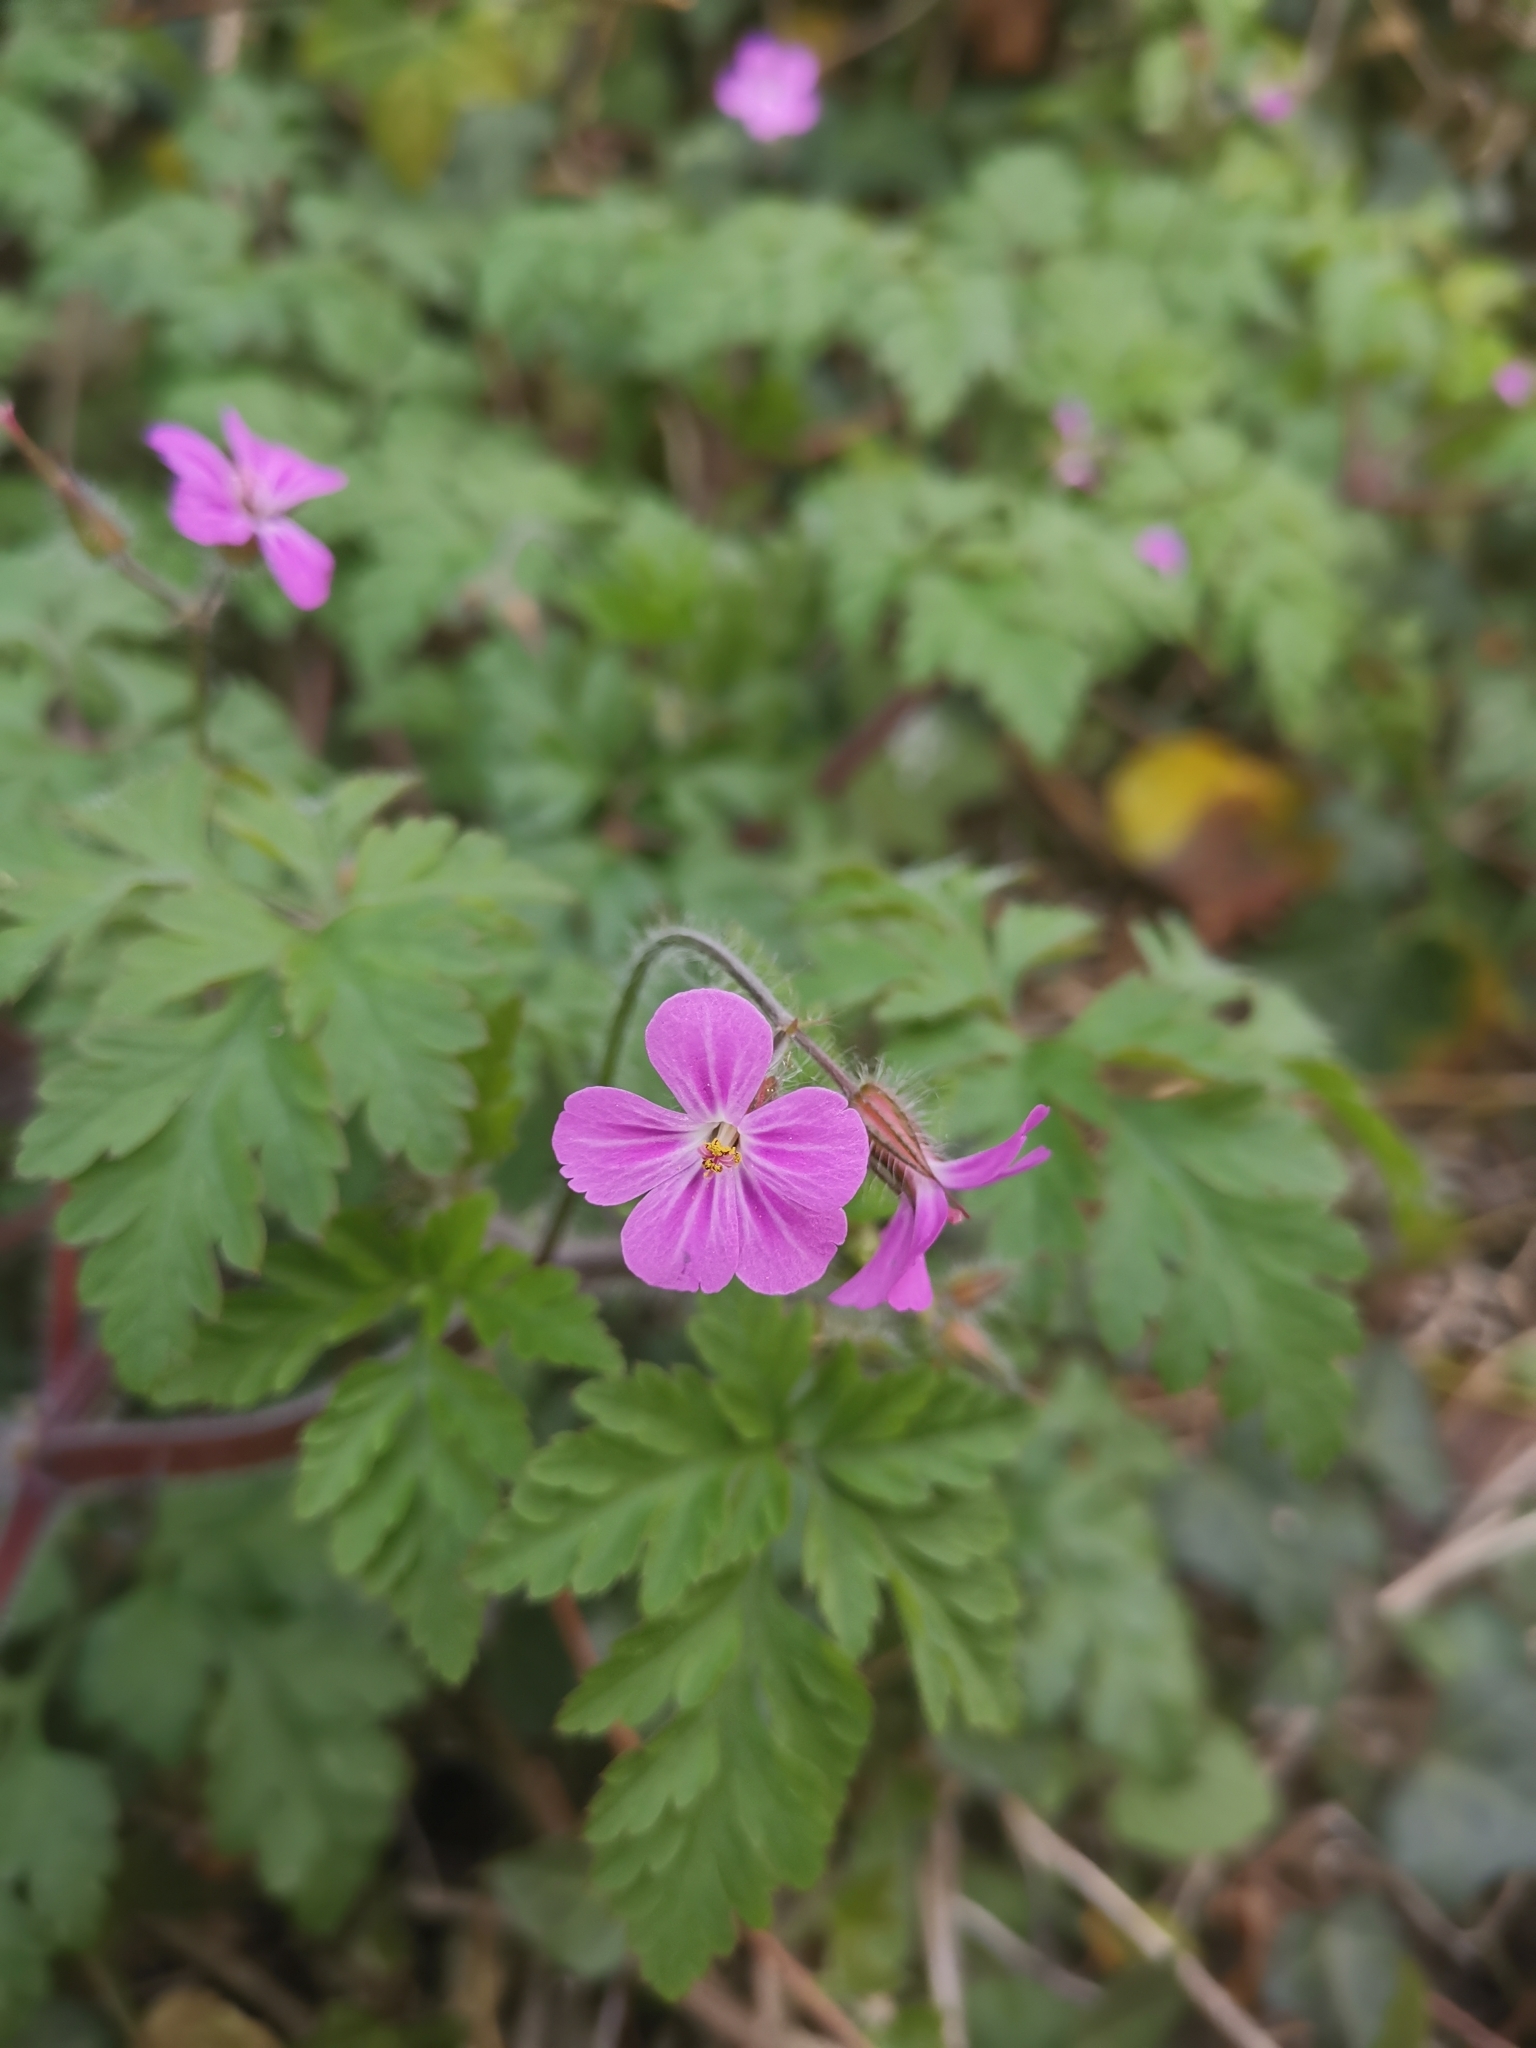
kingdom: Plantae
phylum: Tracheophyta
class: Magnoliopsida
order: Geraniales
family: Geraniaceae
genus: Geranium
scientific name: Geranium robertianum
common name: Herb-robert
